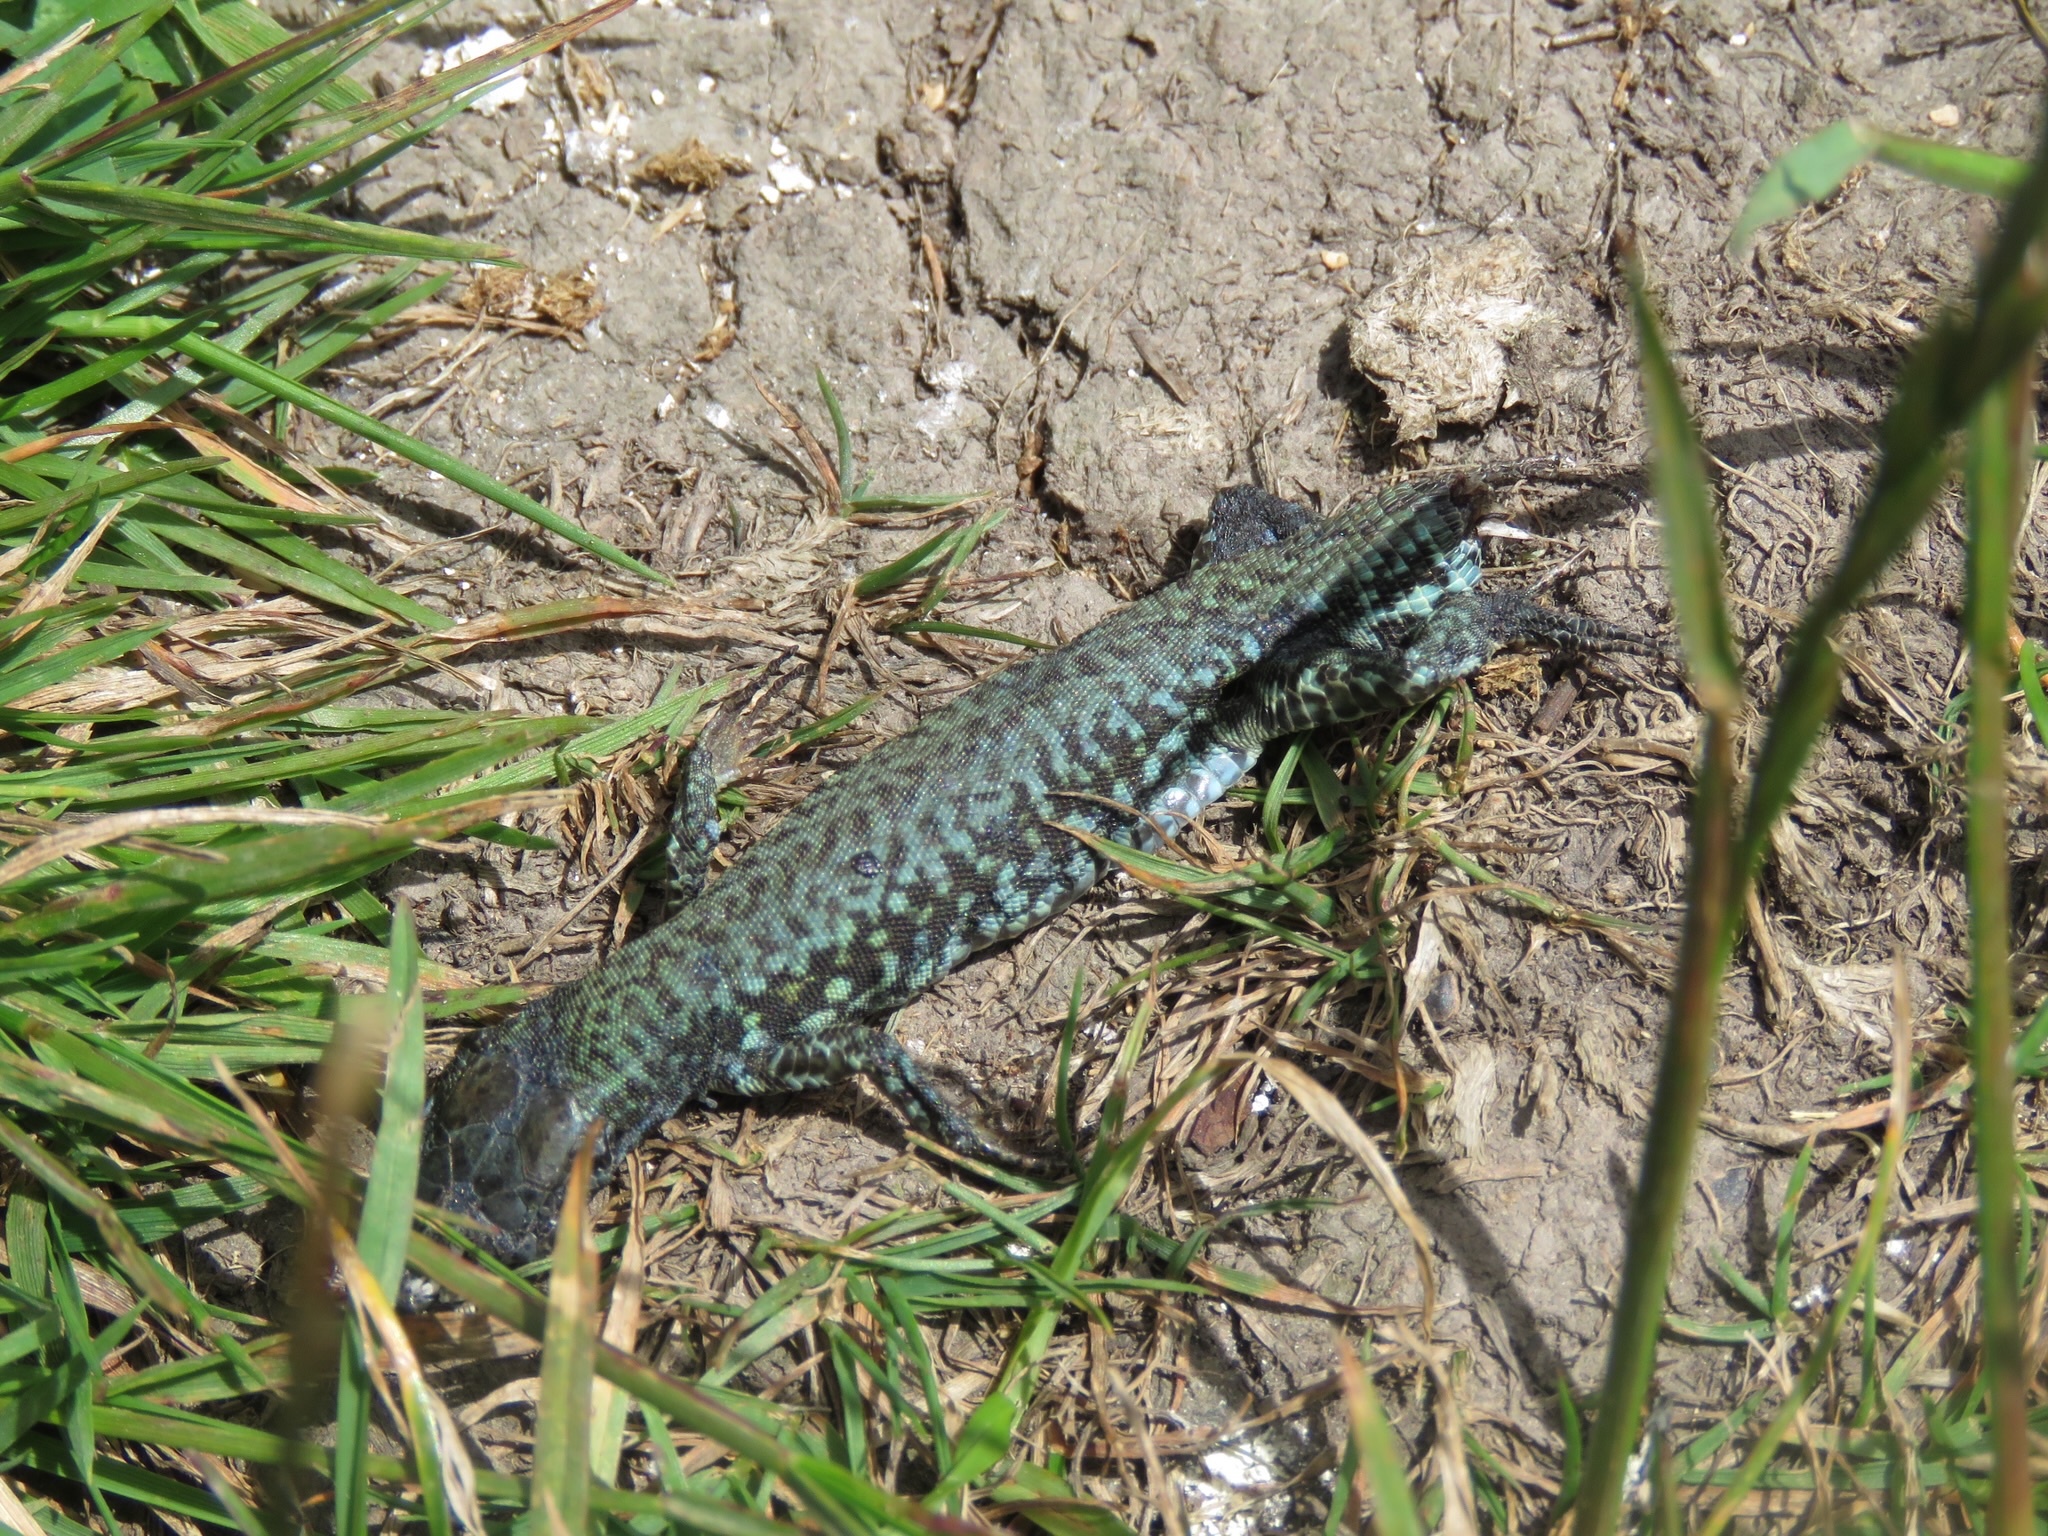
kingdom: Animalia
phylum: Chordata
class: Squamata
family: Lacertidae
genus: Podarcis
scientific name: Podarcis muralis
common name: Common wall lizard
